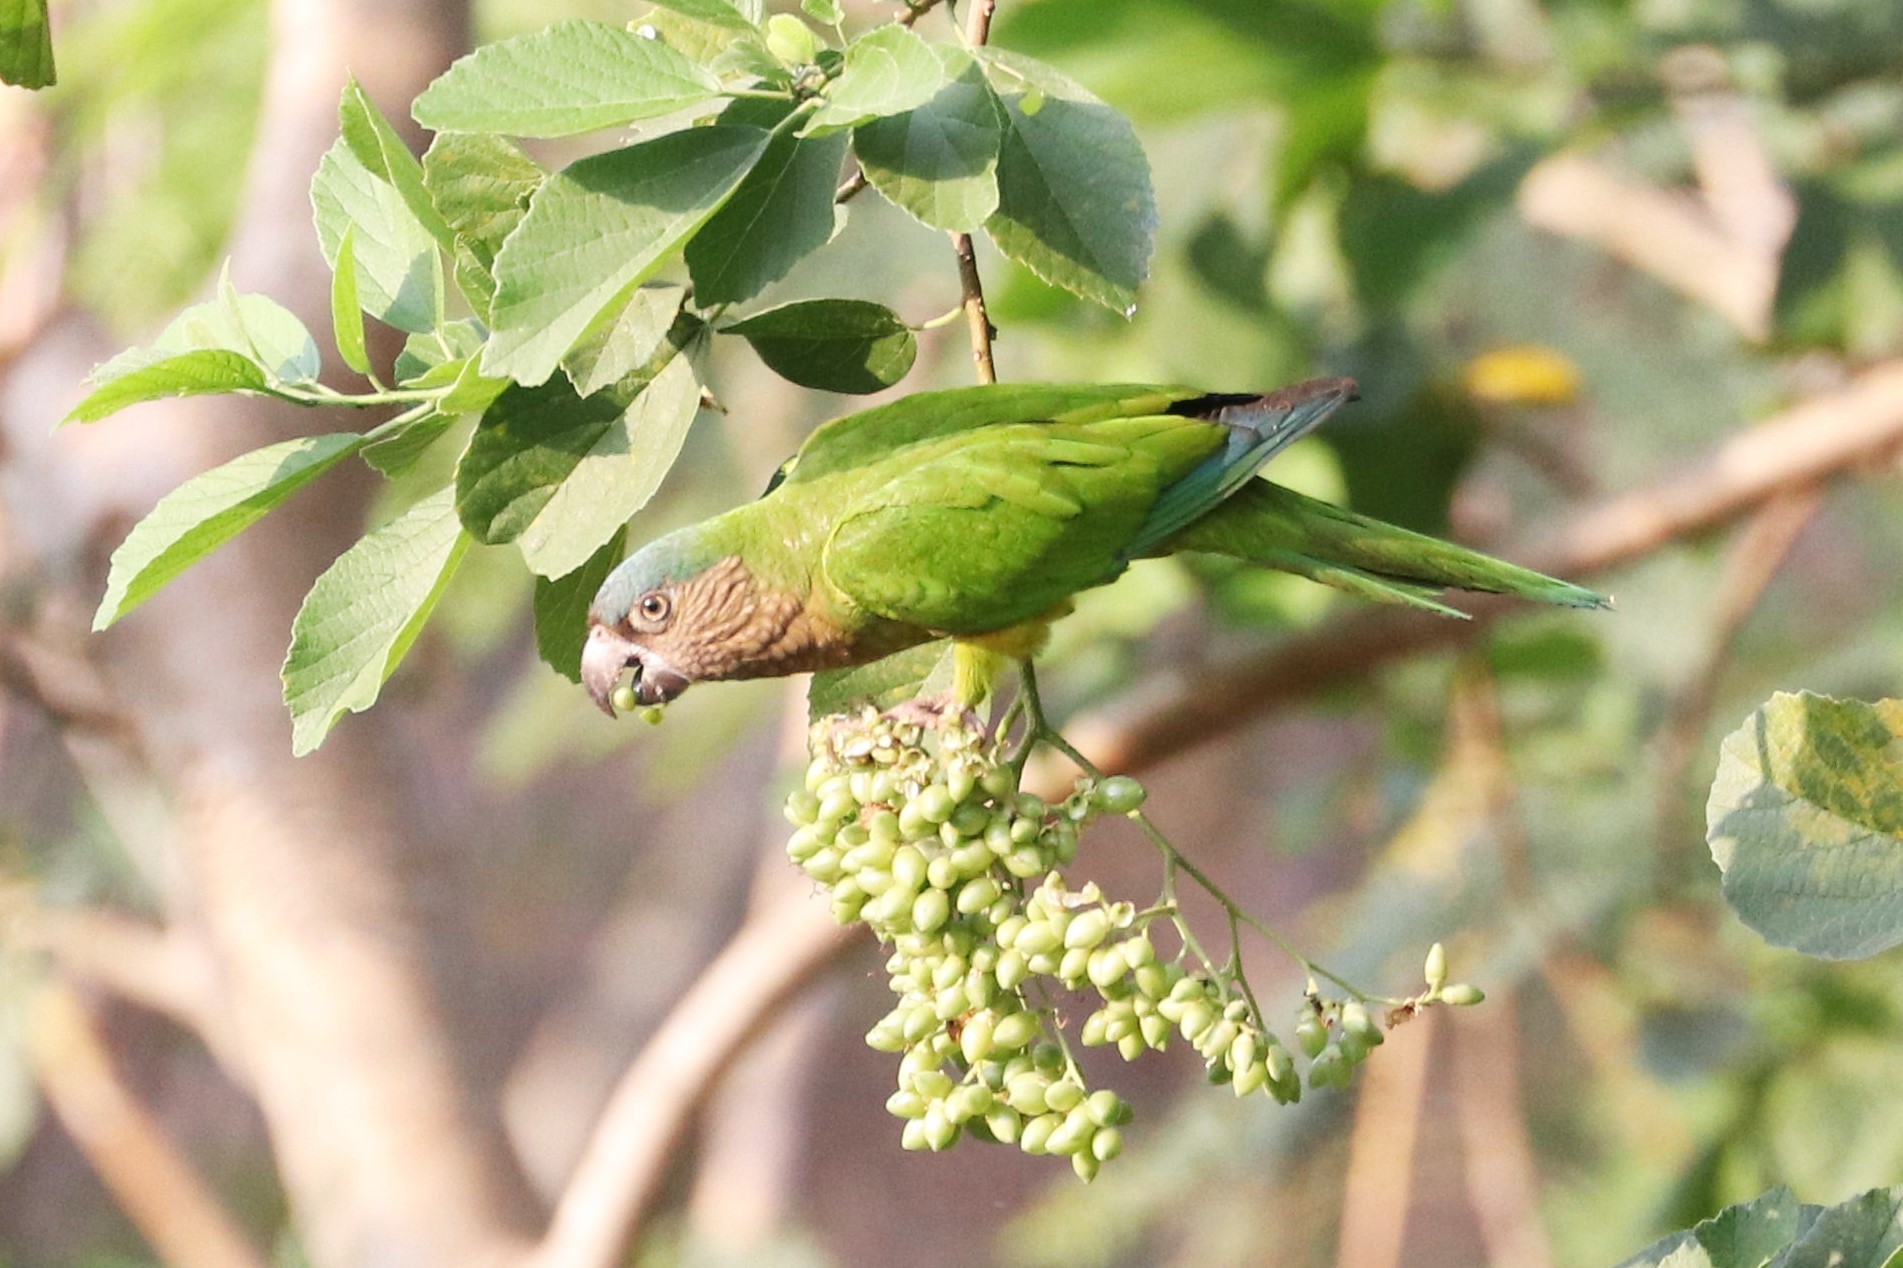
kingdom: Animalia
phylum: Chordata
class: Aves
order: Psittaciformes
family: Psittacidae
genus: Aratinga
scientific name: Aratinga pertinax
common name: Brown-throated parakeet
